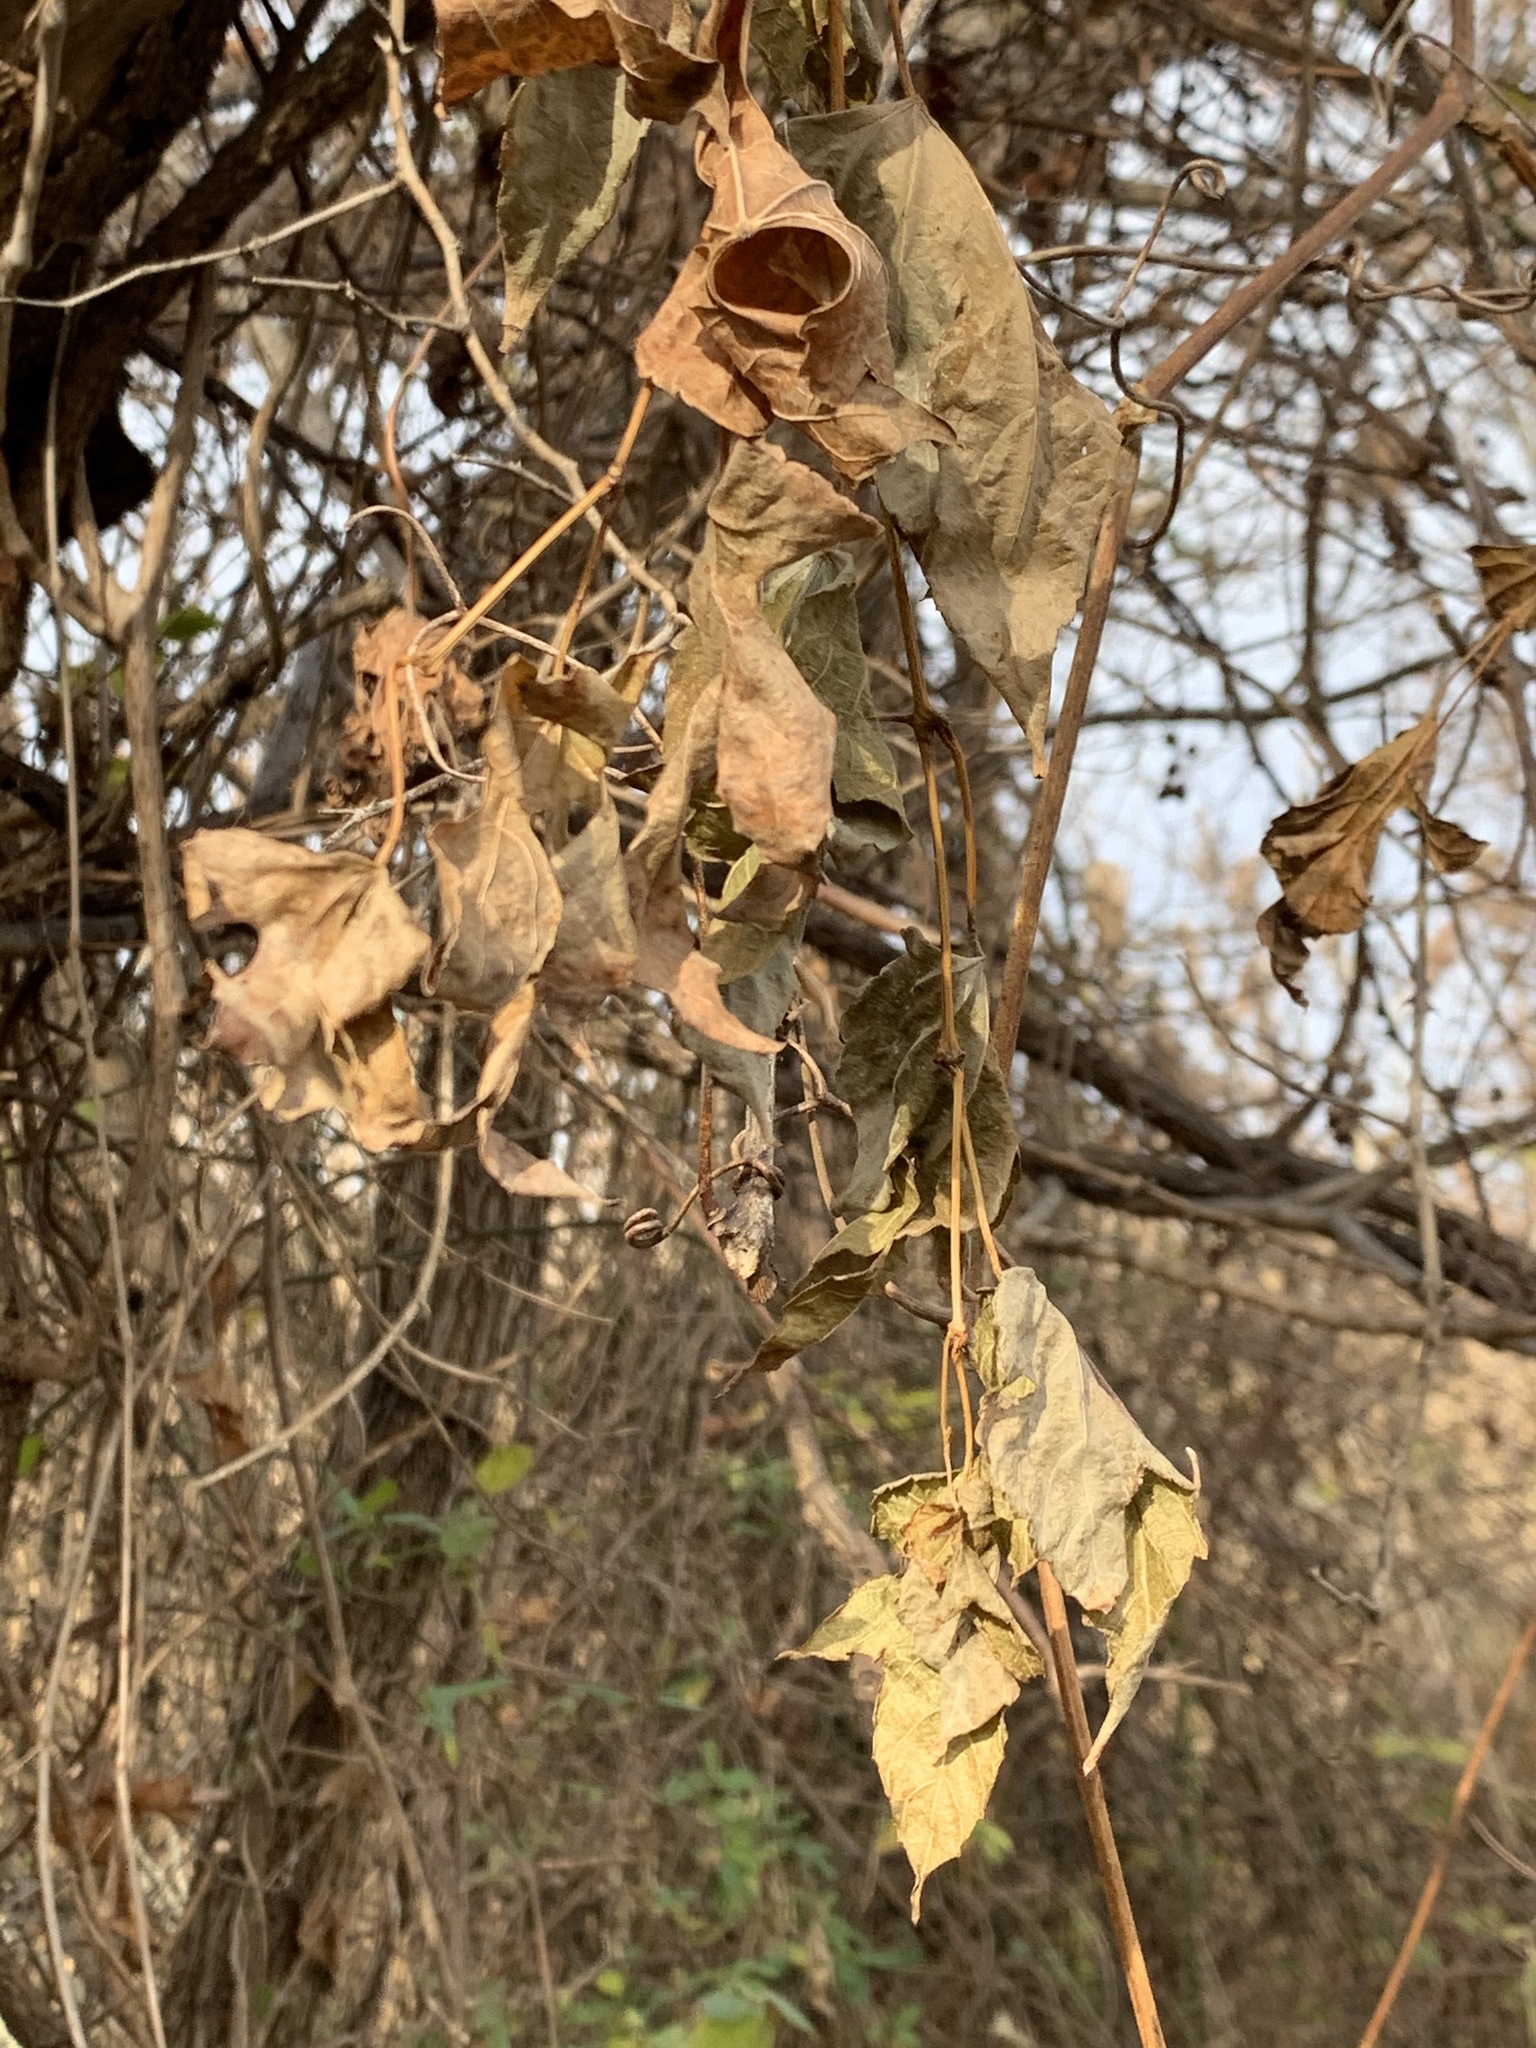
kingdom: Plantae
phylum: Tracheophyta
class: Magnoliopsida
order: Vitales
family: Vitaceae
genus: Ampelopsis
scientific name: Ampelopsis glandulosa
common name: Amur peppervine
